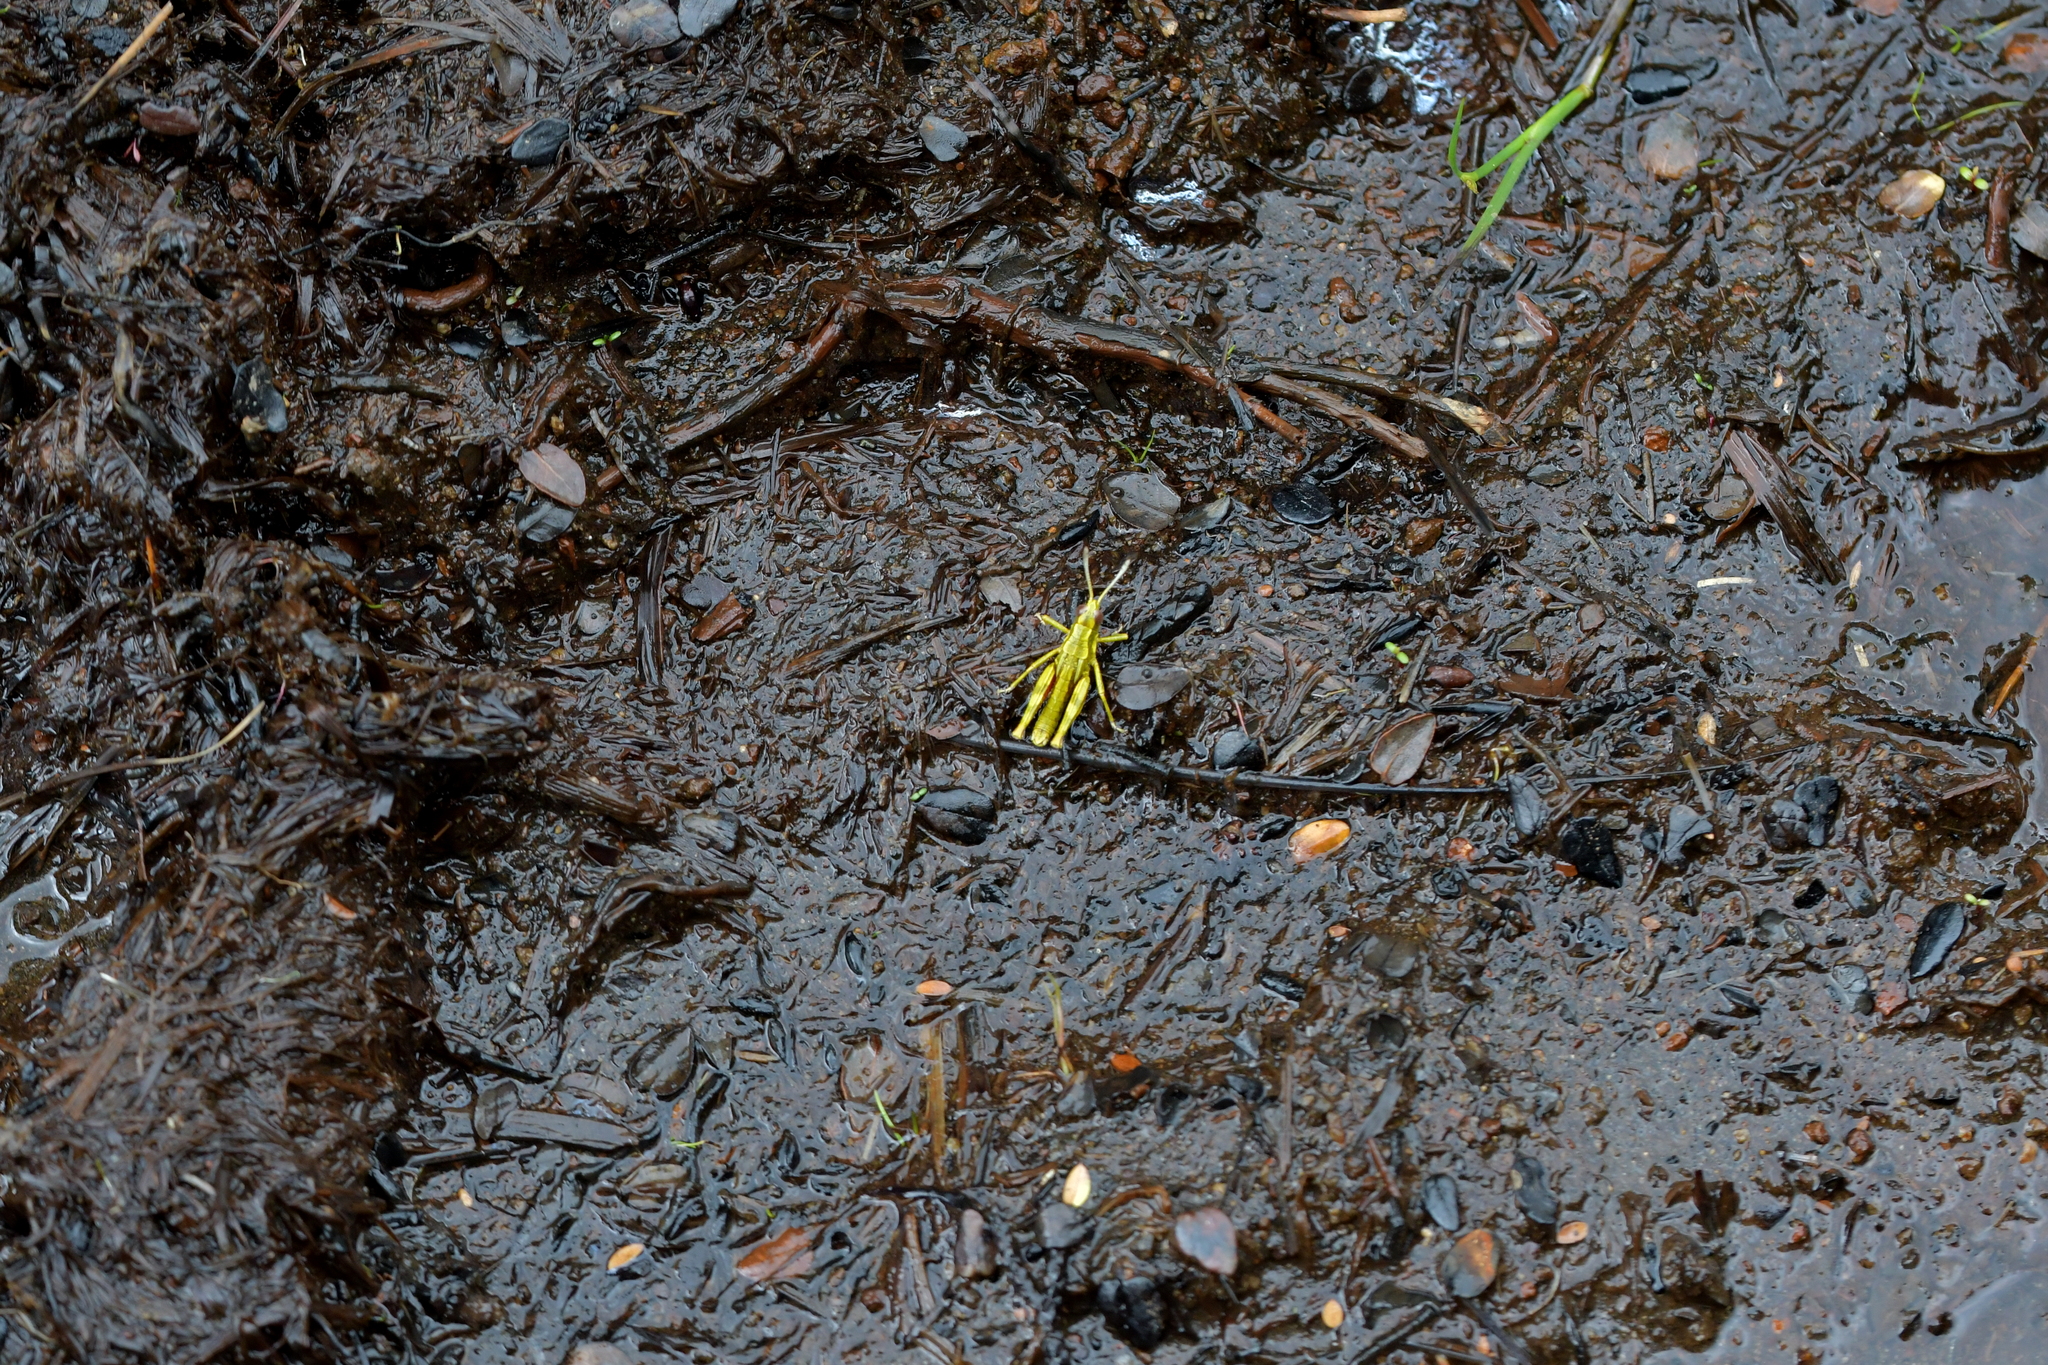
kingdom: Animalia
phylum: Arthropoda
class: Insecta
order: Orthoptera
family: Acrididae
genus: Sigaus
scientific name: Sigaus piliferus
